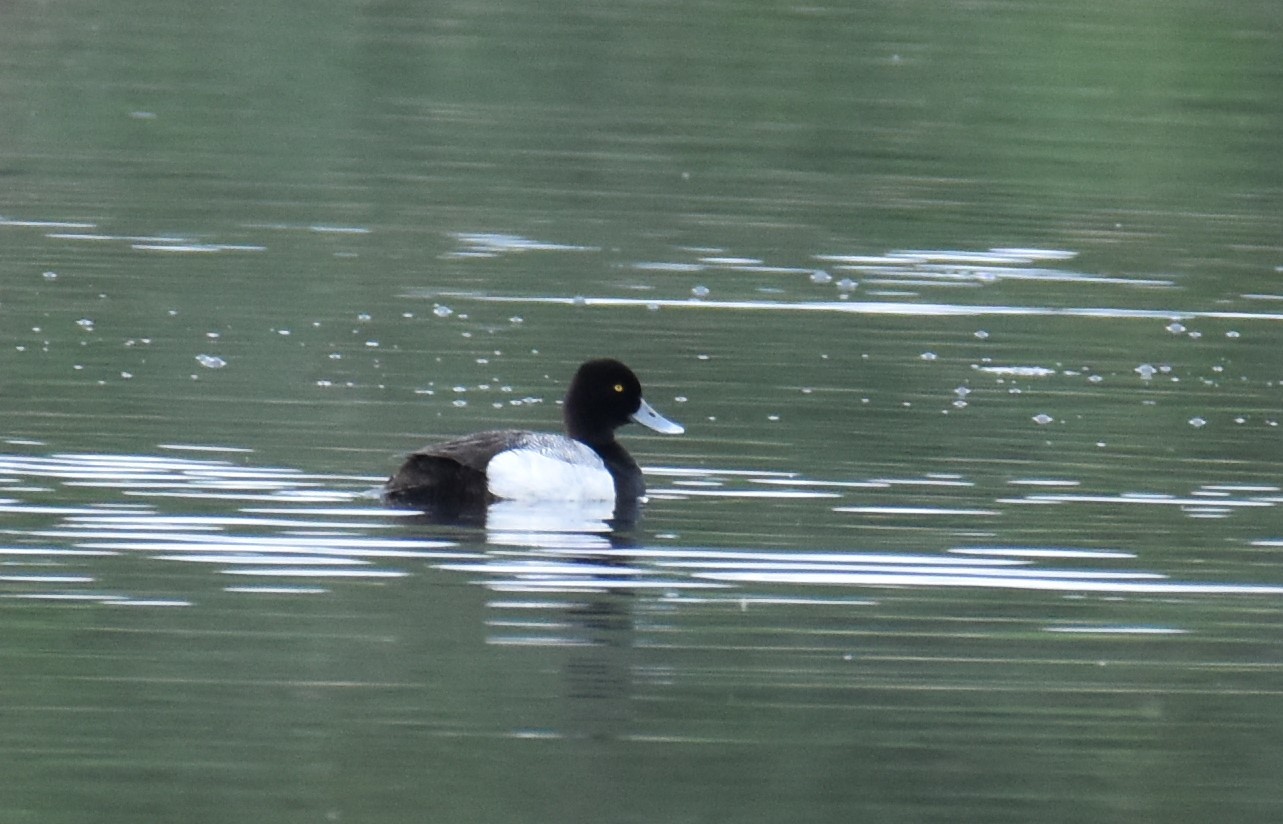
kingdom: Animalia
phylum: Chordata
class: Aves
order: Anseriformes
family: Anatidae
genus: Aythya
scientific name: Aythya marila
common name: Greater scaup
